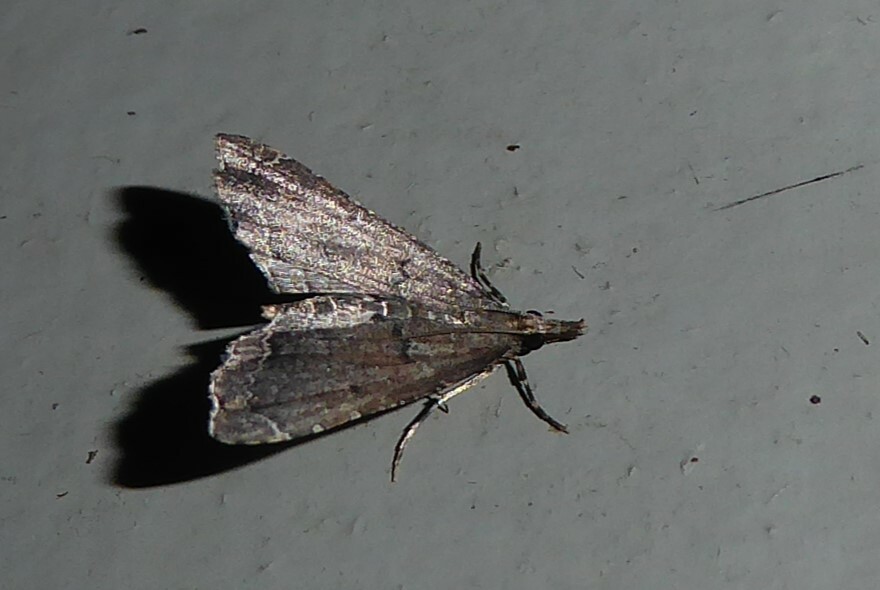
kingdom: Animalia
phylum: Arthropoda
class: Insecta
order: Lepidoptera
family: Crambidae
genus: Diplopseustis
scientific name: Diplopseustis perieresalis
